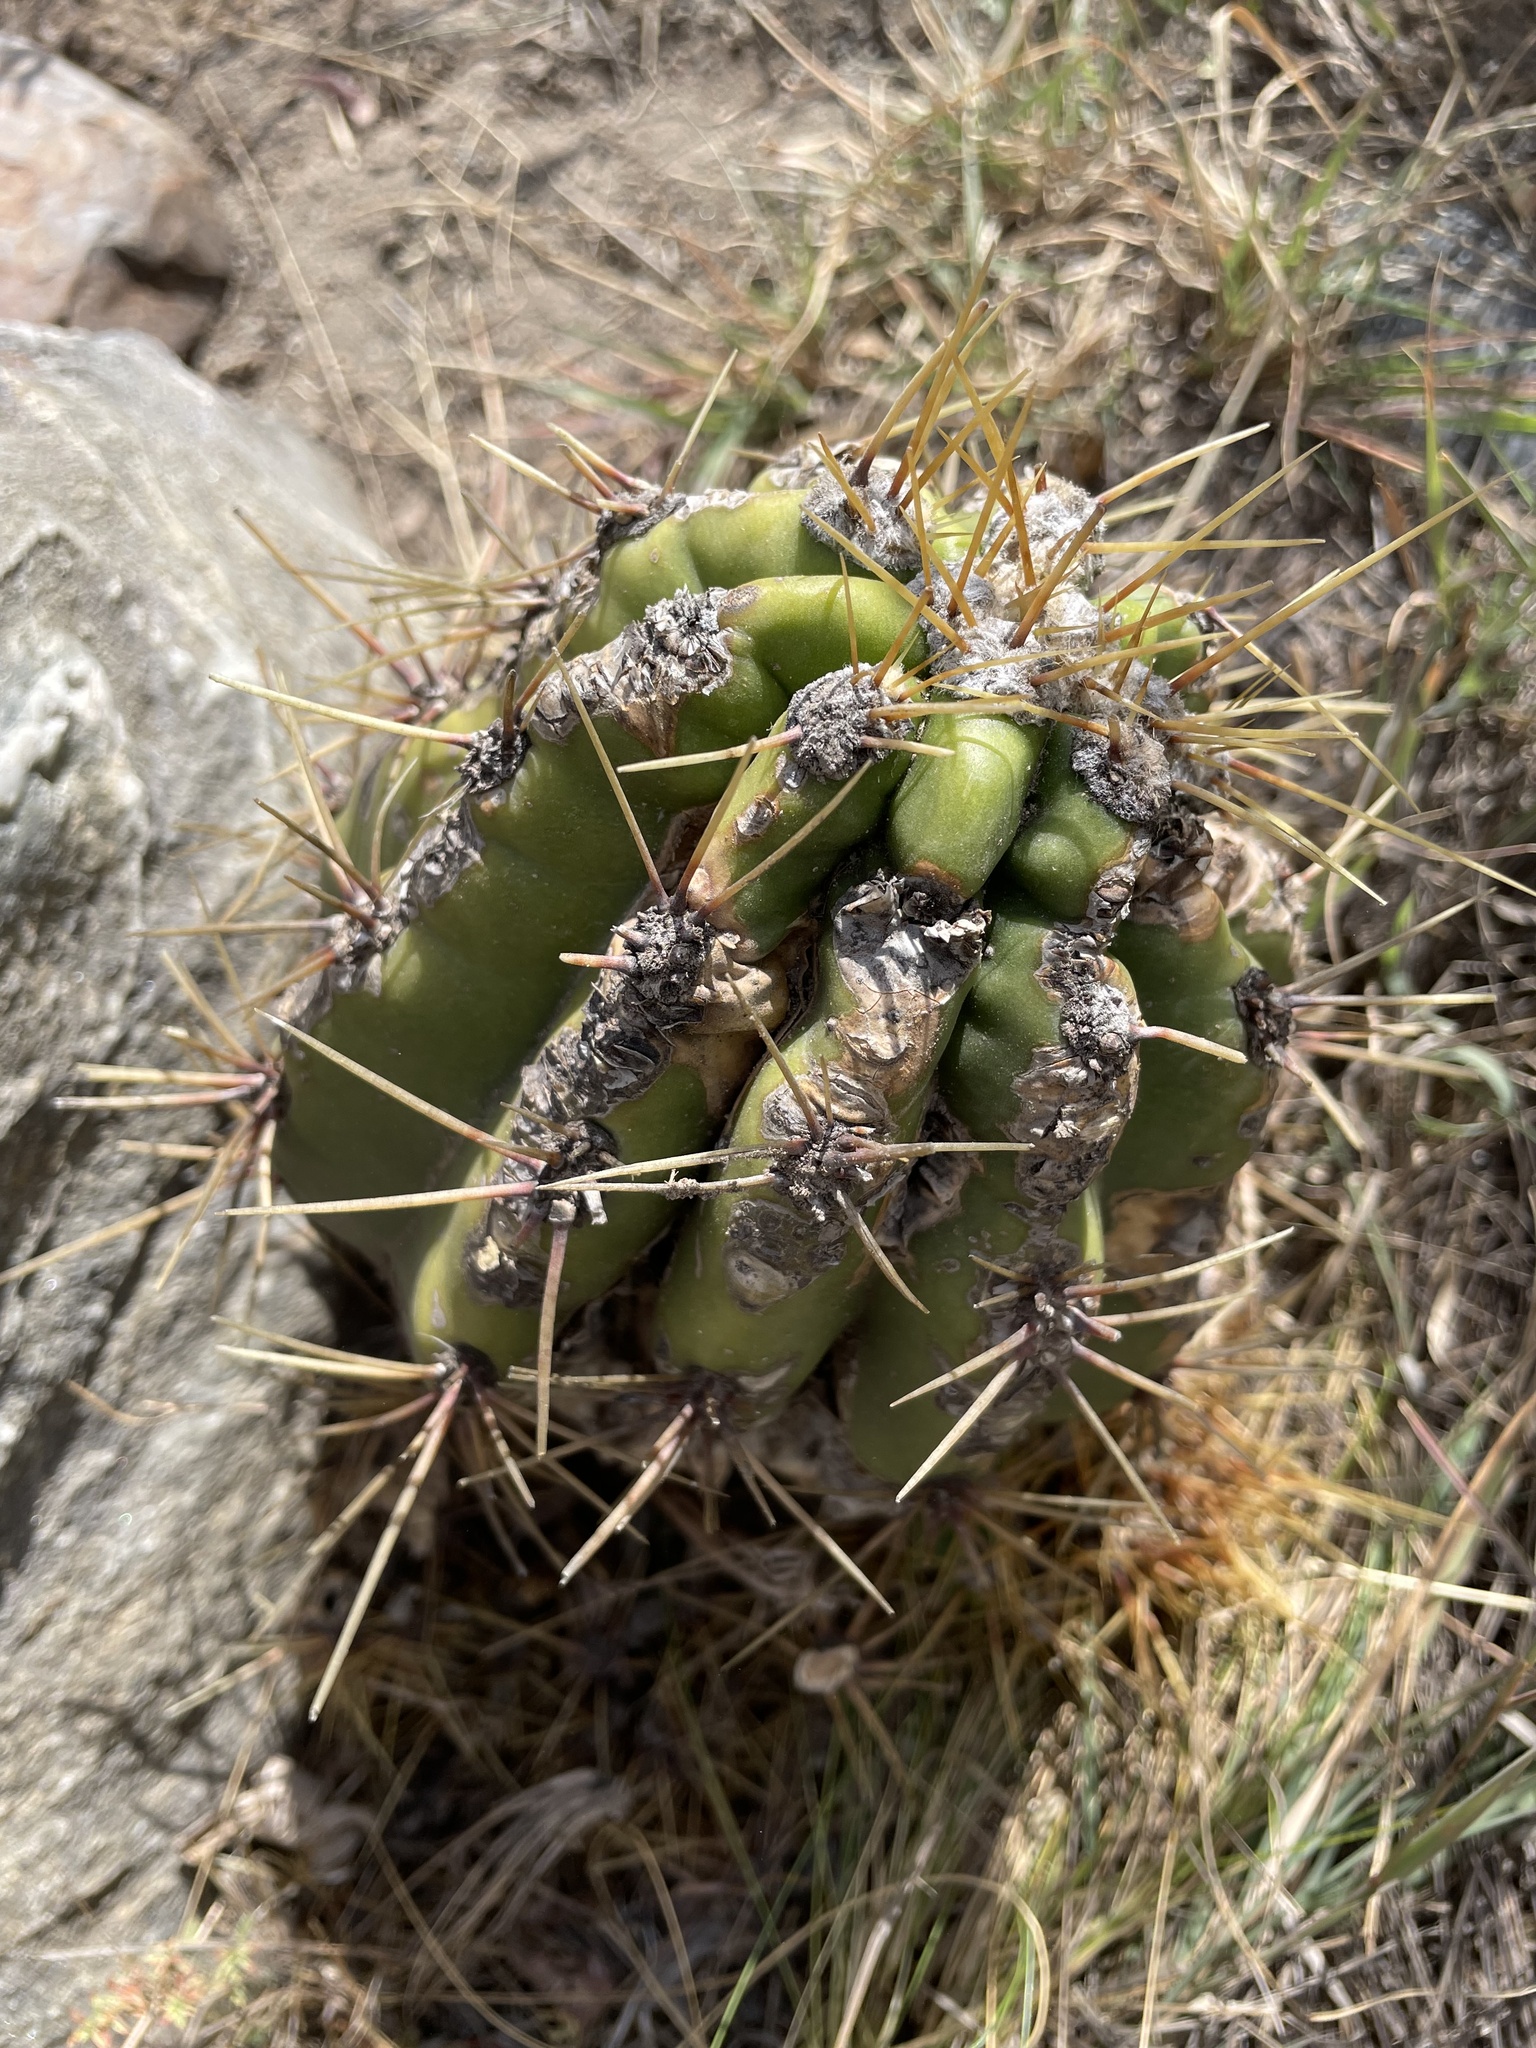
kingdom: Plantae
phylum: Tracheophyta
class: Magnoliopsida
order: Caryophyllales
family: Cactaceae
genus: Soehrensia
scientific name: Soehrensia candicans
